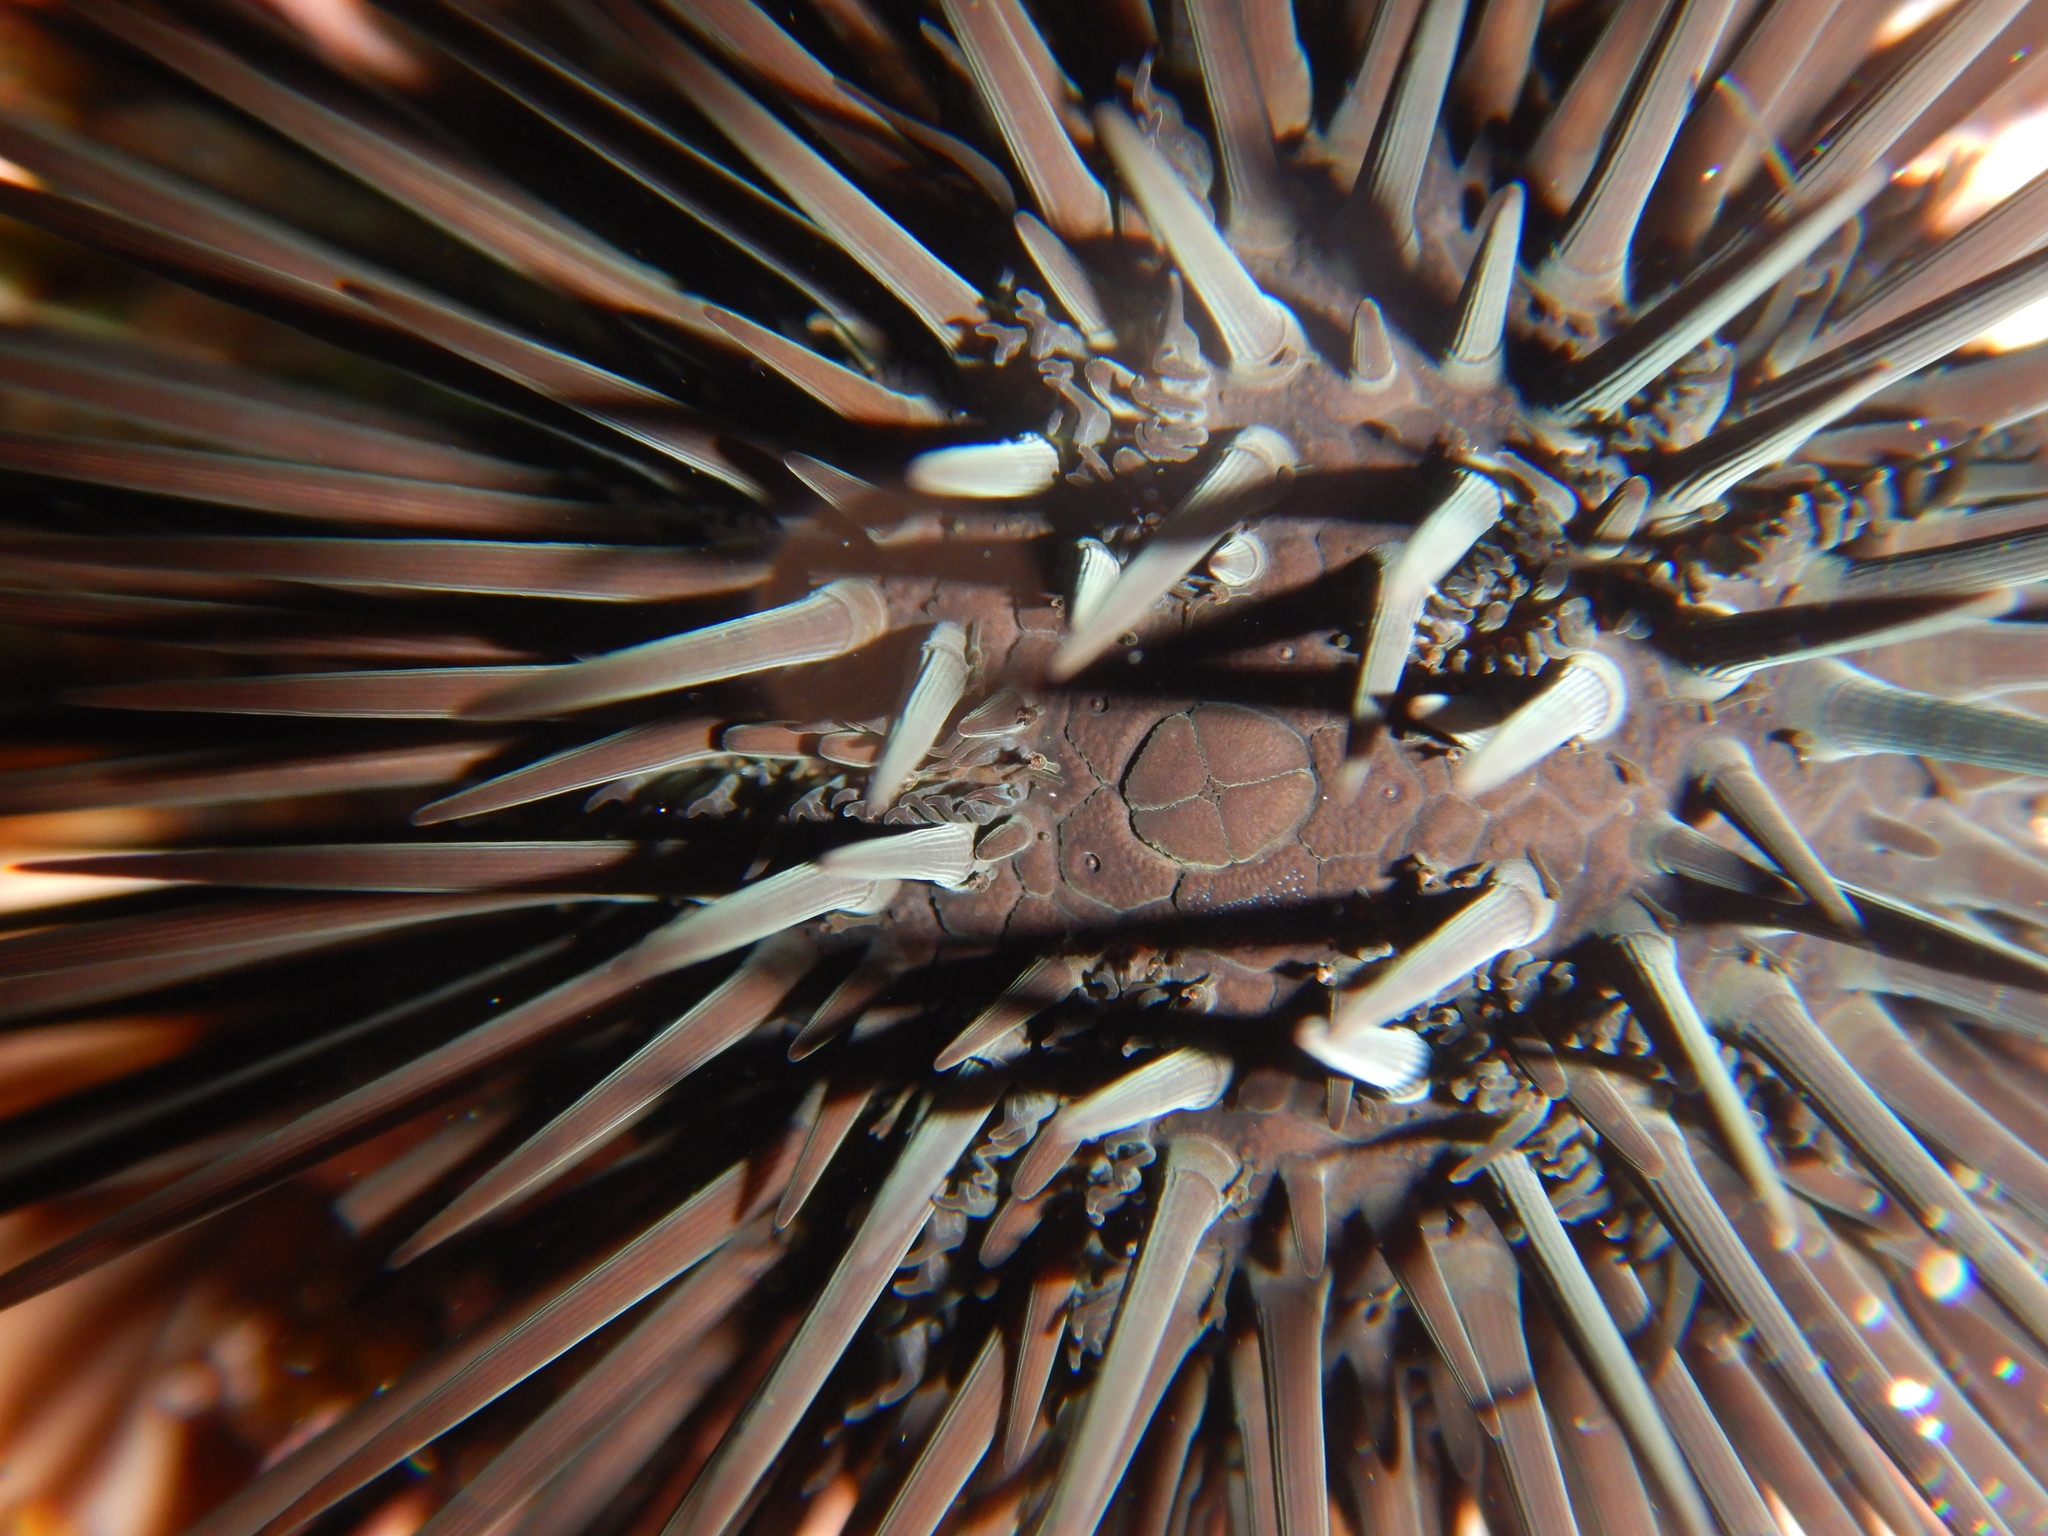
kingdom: Animalia
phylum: Echinodermata
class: Echinoidea
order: Arbacioida
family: Arbaciidae
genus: Arbacia
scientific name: Arbacia lixula
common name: Black sea urchin
